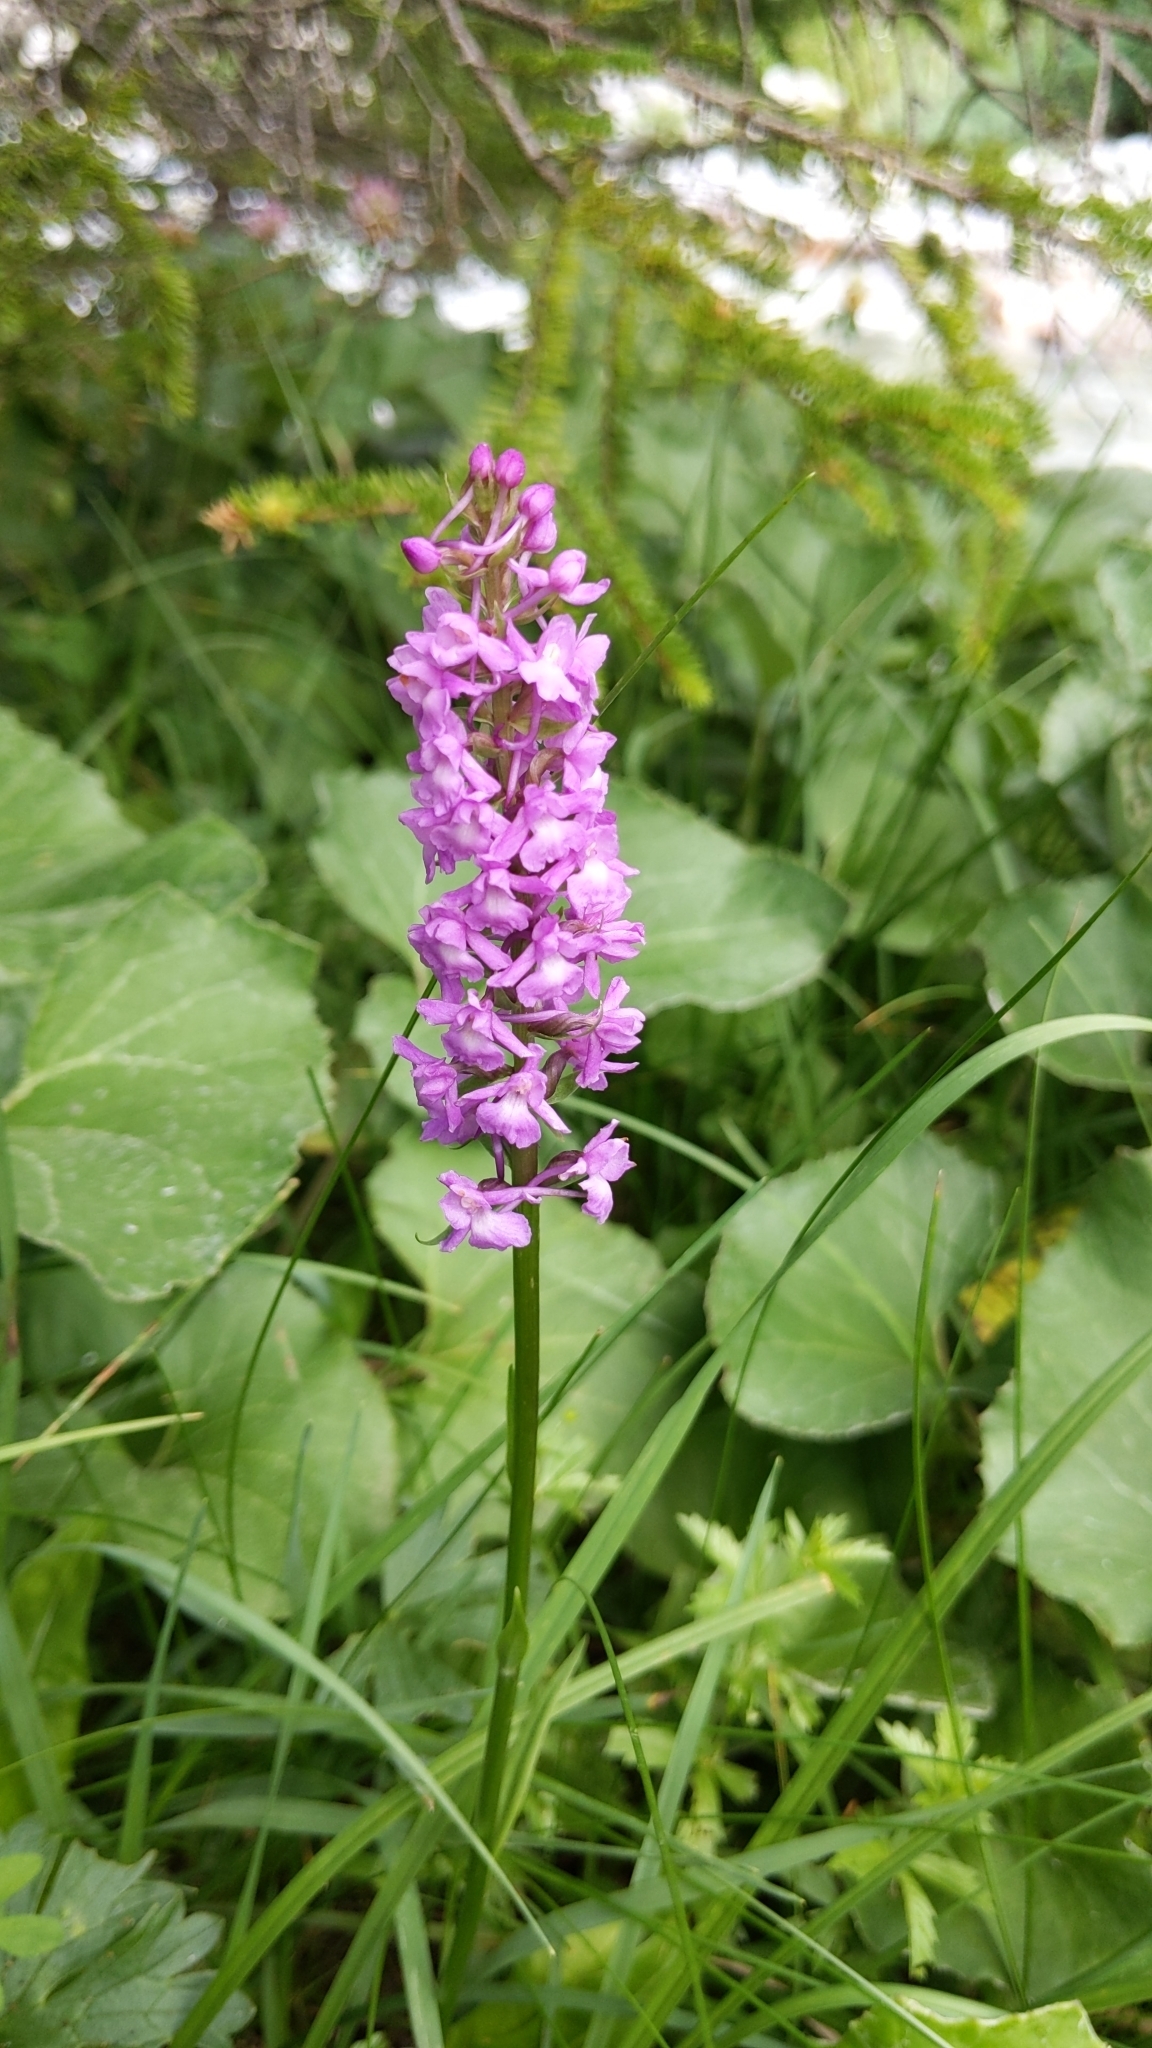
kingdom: Plantae
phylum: Tracheophyta
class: Liliopsida
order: Asparagales
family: Orchidaceae
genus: Gymnadenia
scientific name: Gymnadenia conopsea
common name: Fragrant orchid
